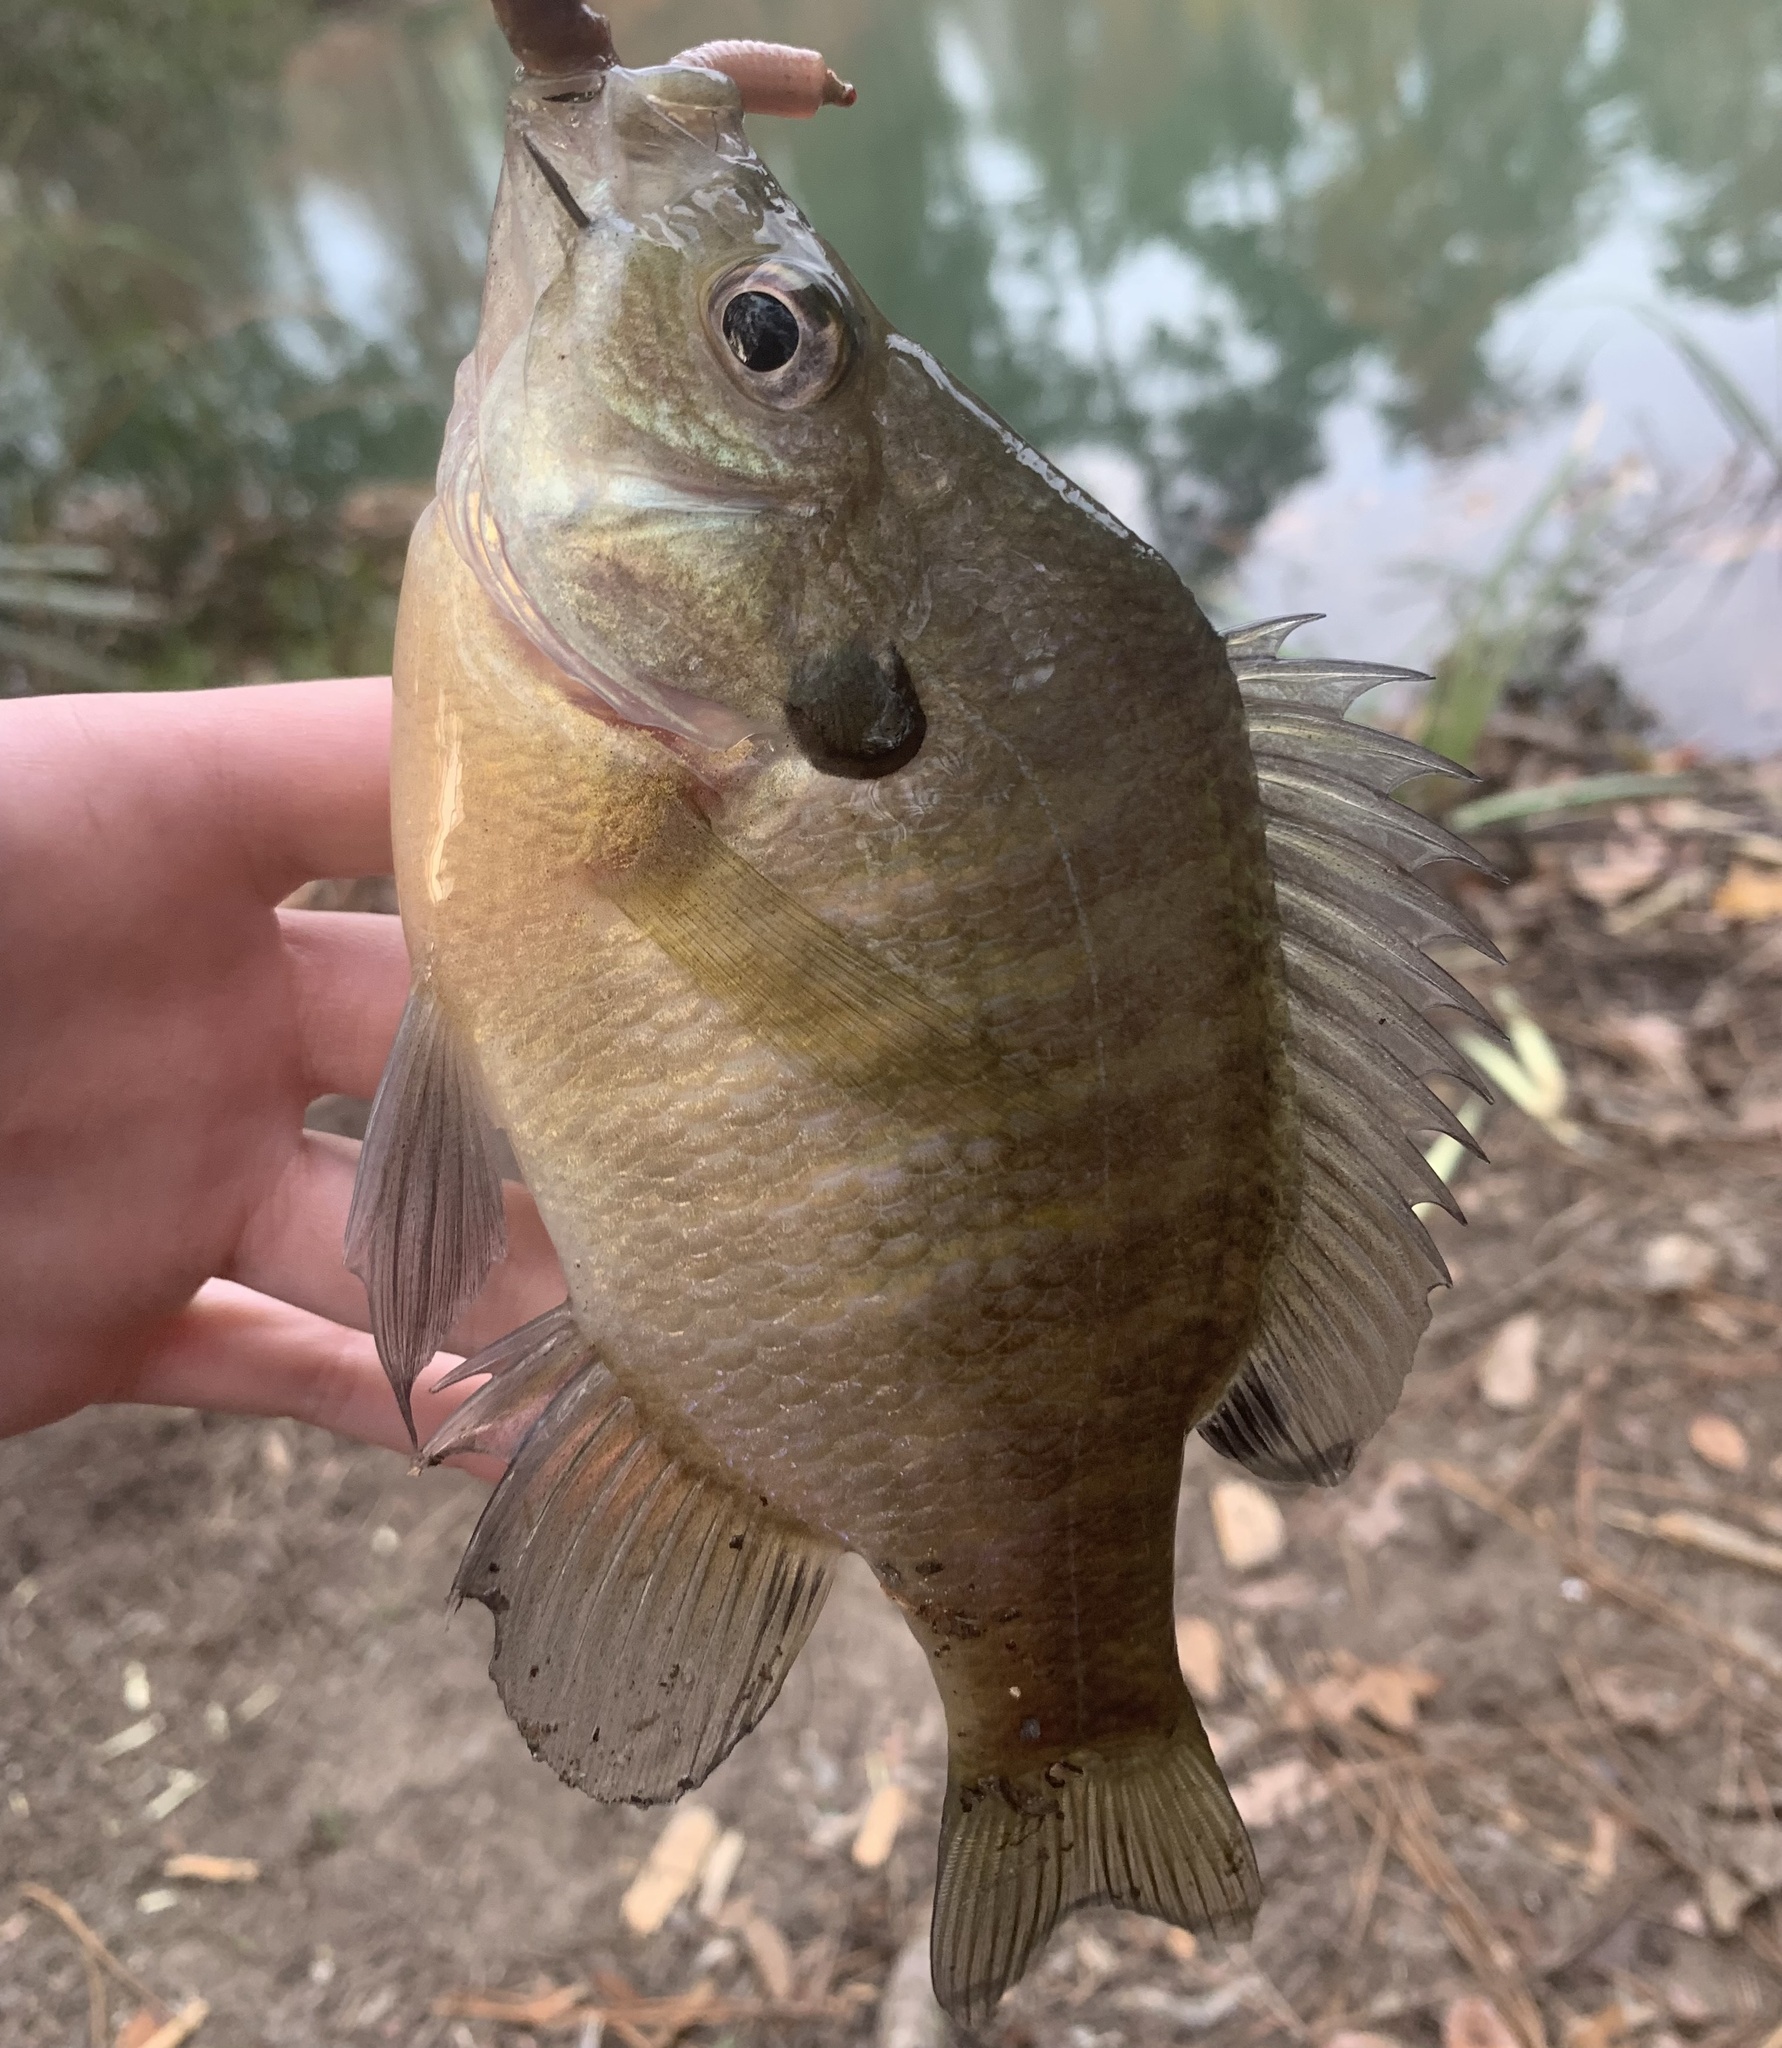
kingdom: Animalia
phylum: Chordata
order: Perciformes
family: Centrarchidae
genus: Lepomis
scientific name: Lepomis macrochirus
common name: Bluegill
